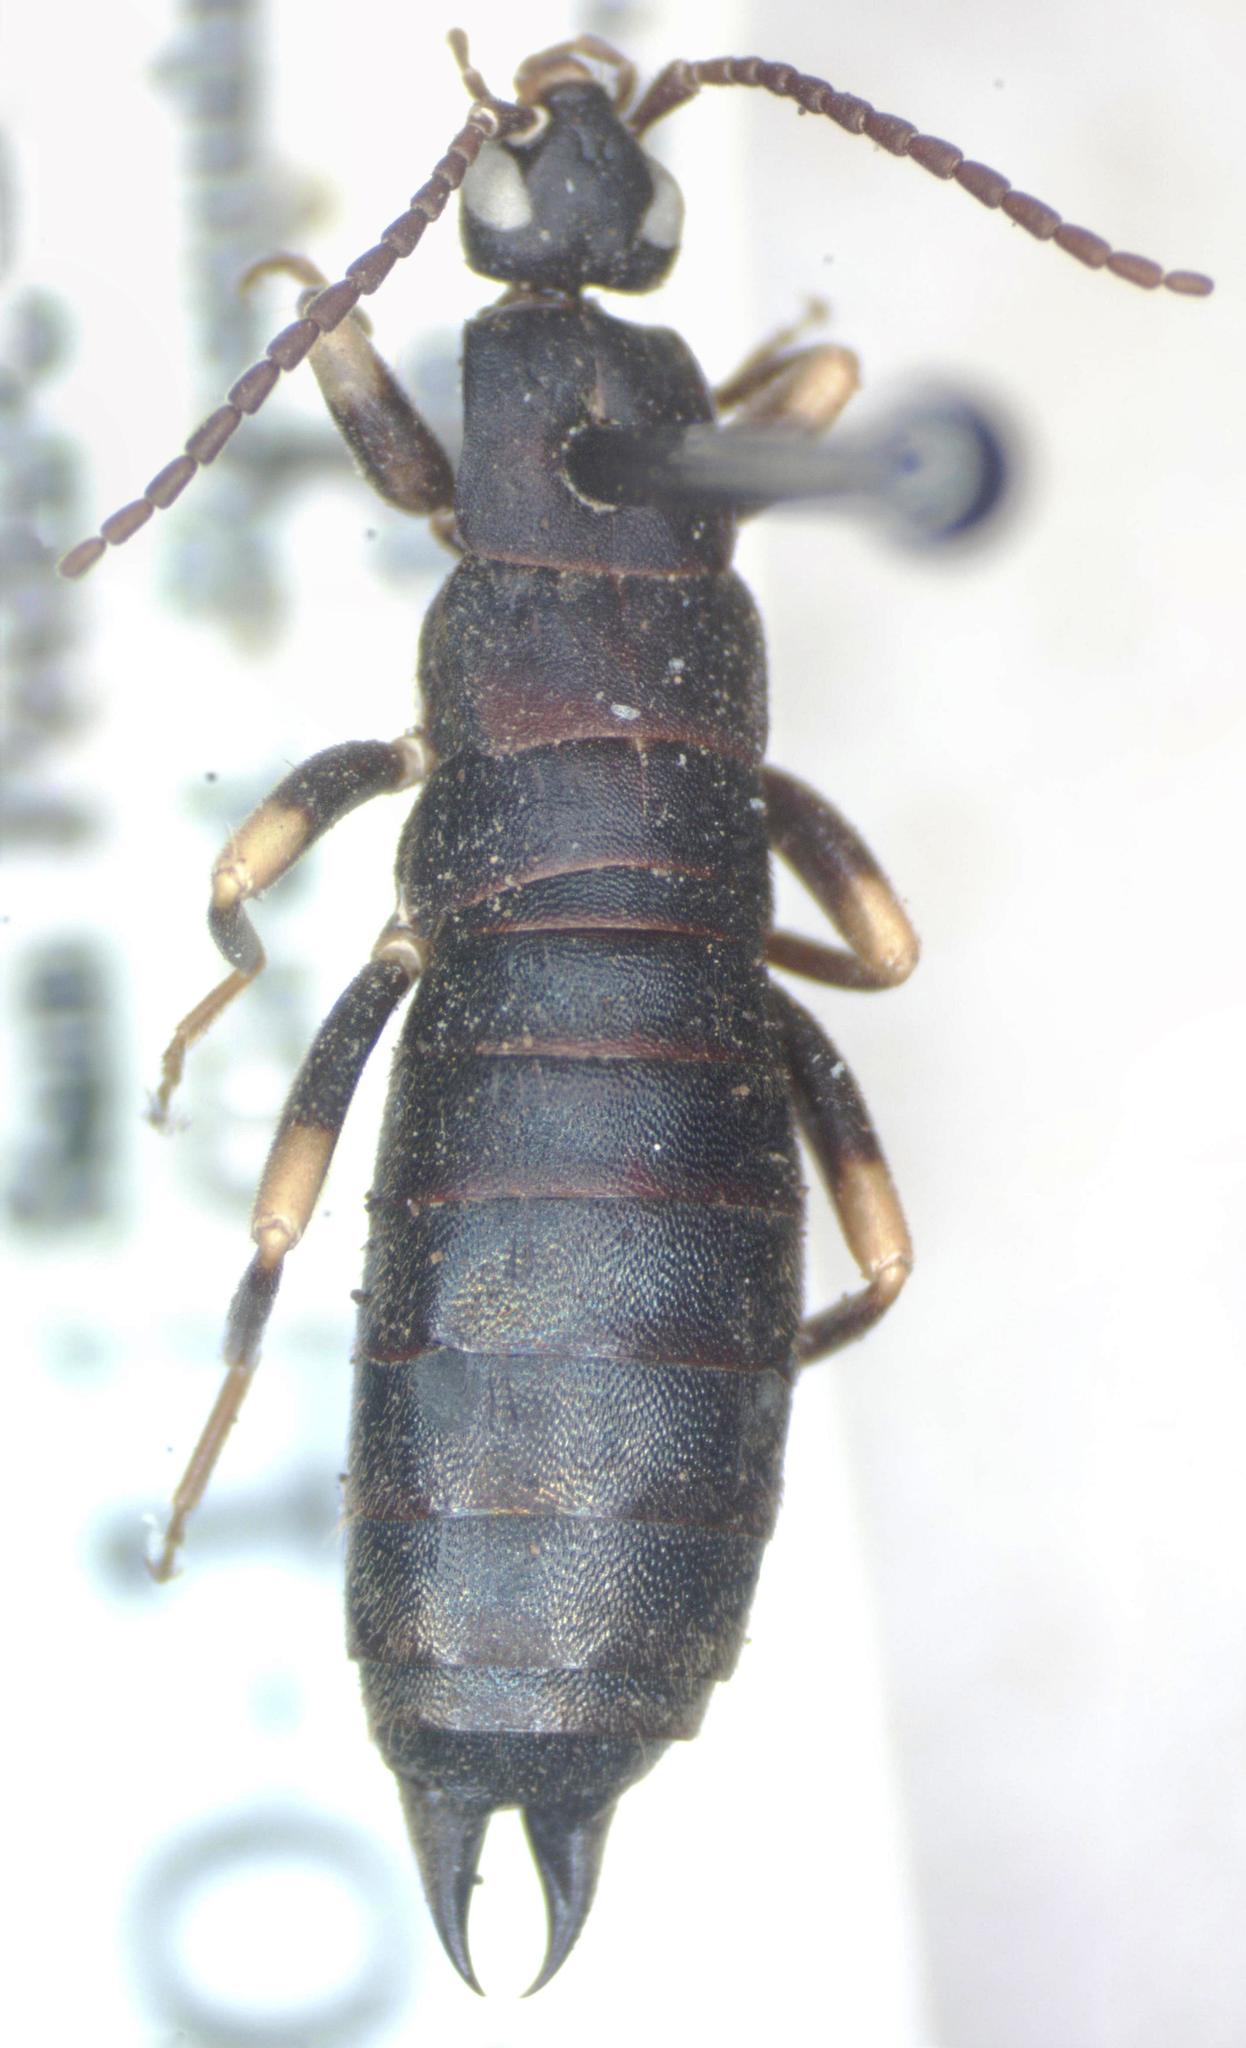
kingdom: Animalia
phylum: Arthropoda
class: Insecta
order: Dermaptera
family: Anisolabididae
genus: Ctenisolabis
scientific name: Ctenisolabis mahunkai
